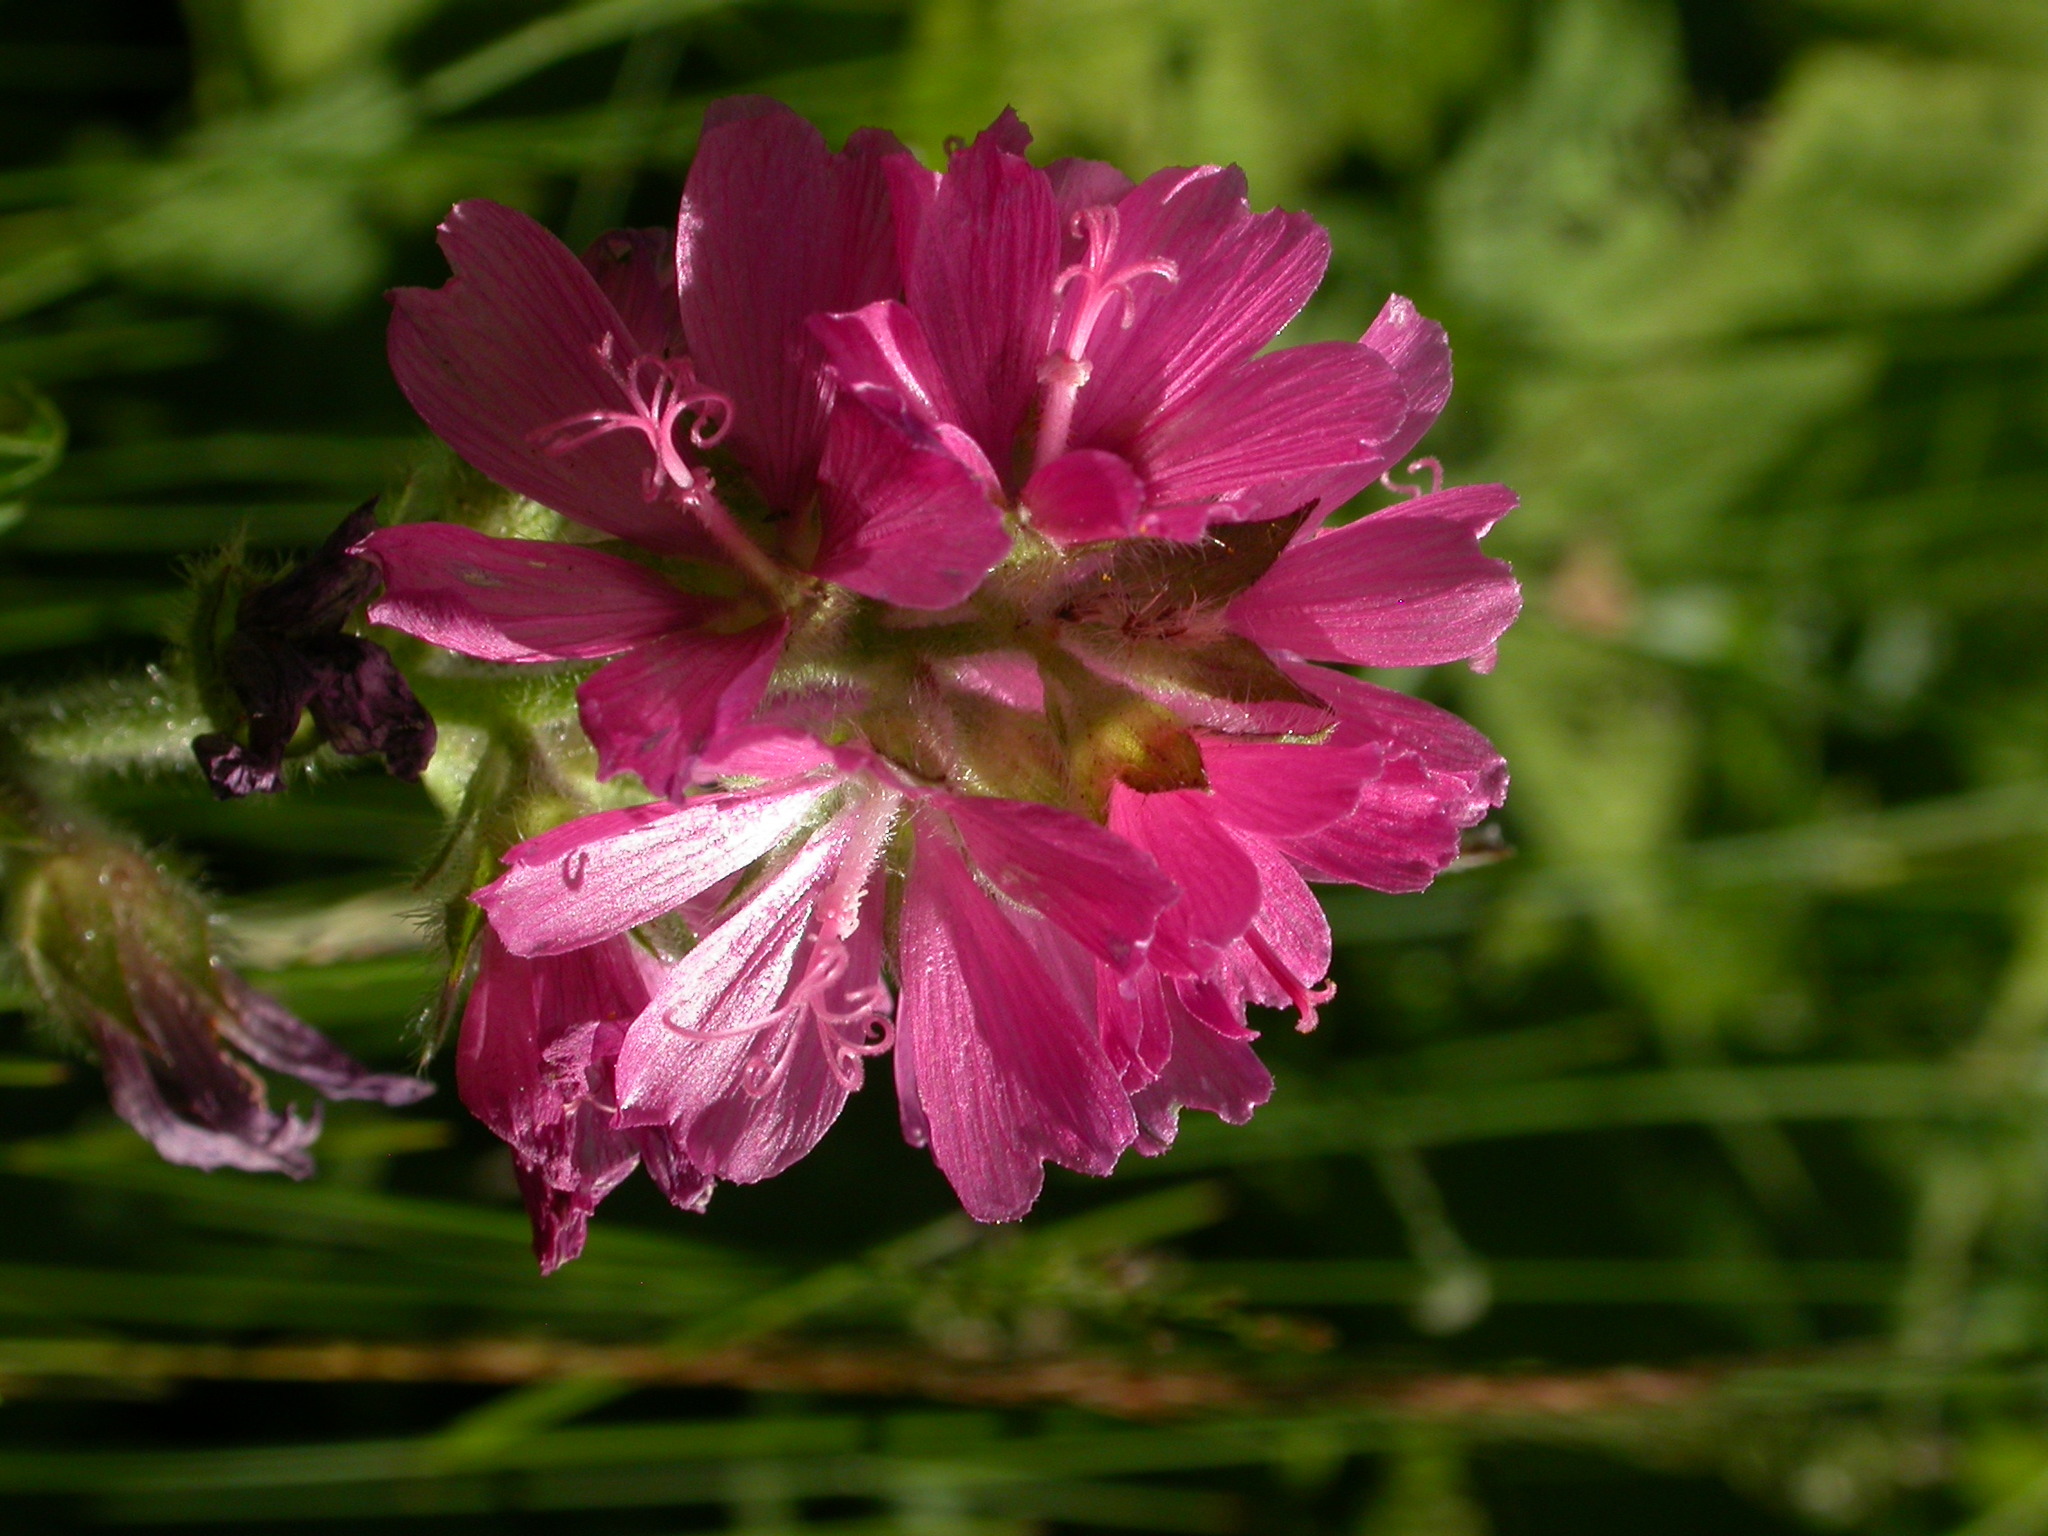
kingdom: Plantae
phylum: Tracheophyta
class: Magnoliopsida
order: Malvales
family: Malvaceae
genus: Sidalcea
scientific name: Sidalcea hirtipes
